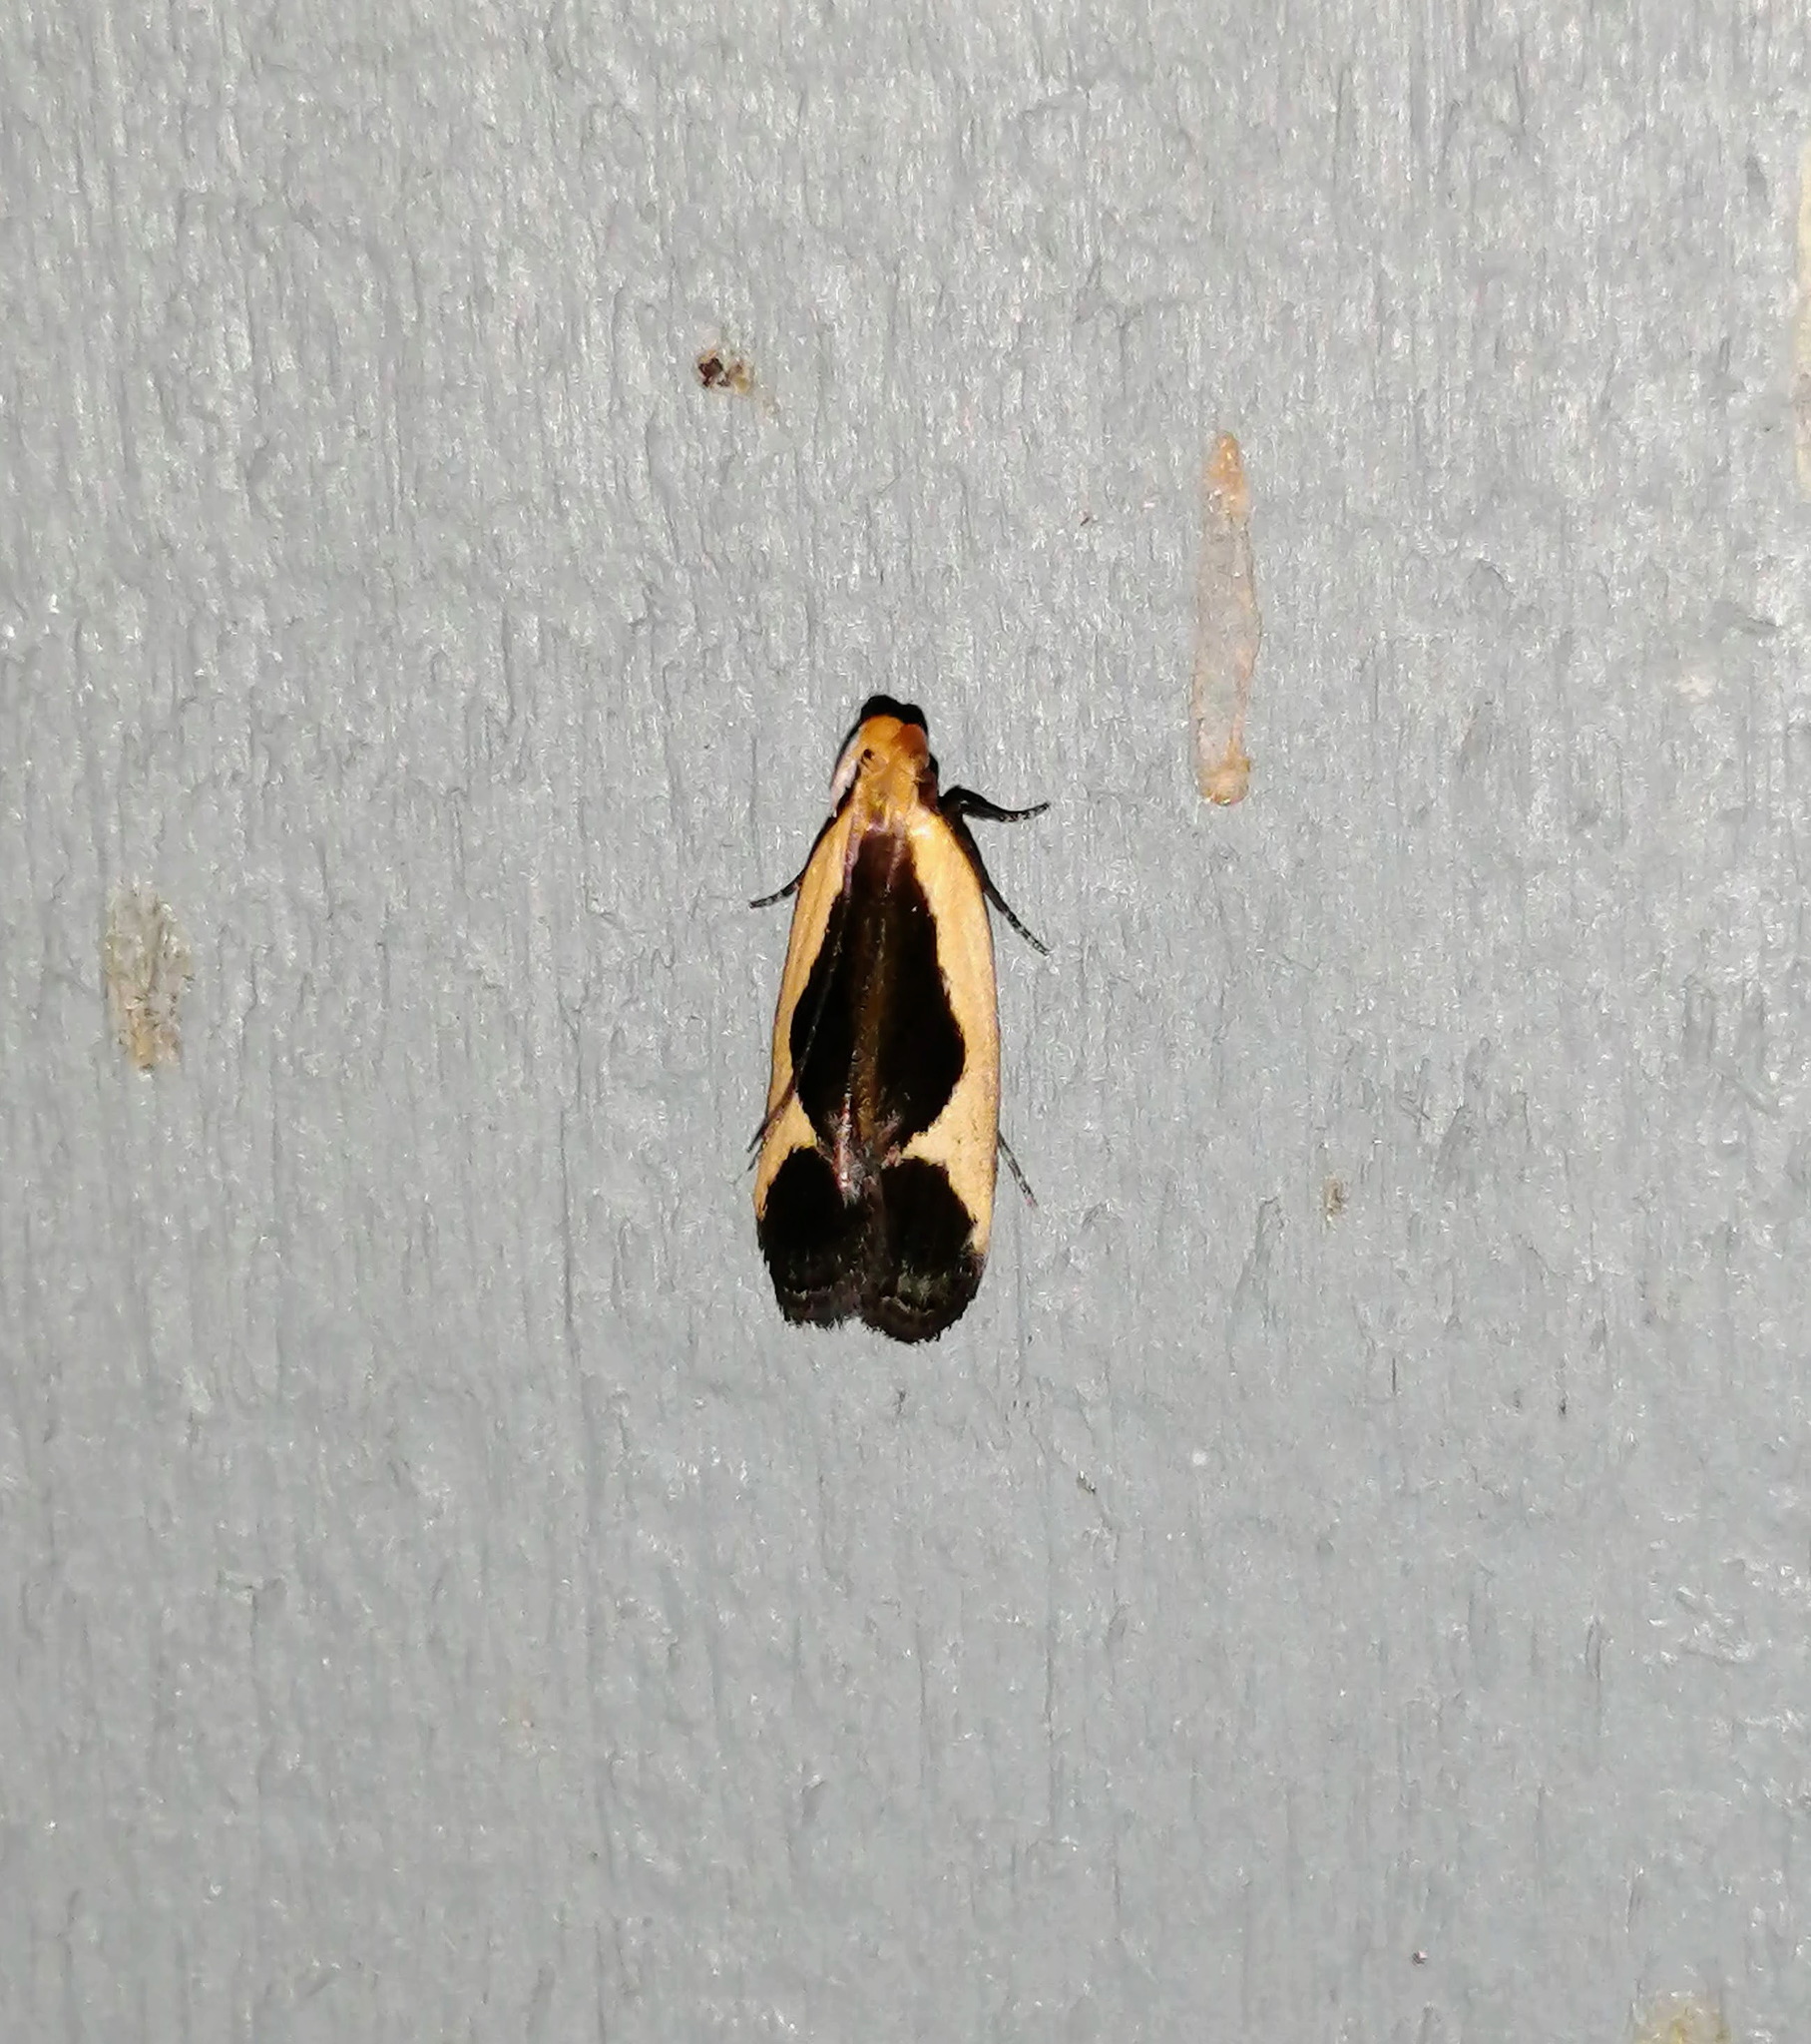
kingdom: Animalia
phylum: Arthropoda
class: Insecta
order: Lepidoptera
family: Gelechiidae
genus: Dichomeris
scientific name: Dichomeris flavocostella
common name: Cream-edged dichomeris moth
